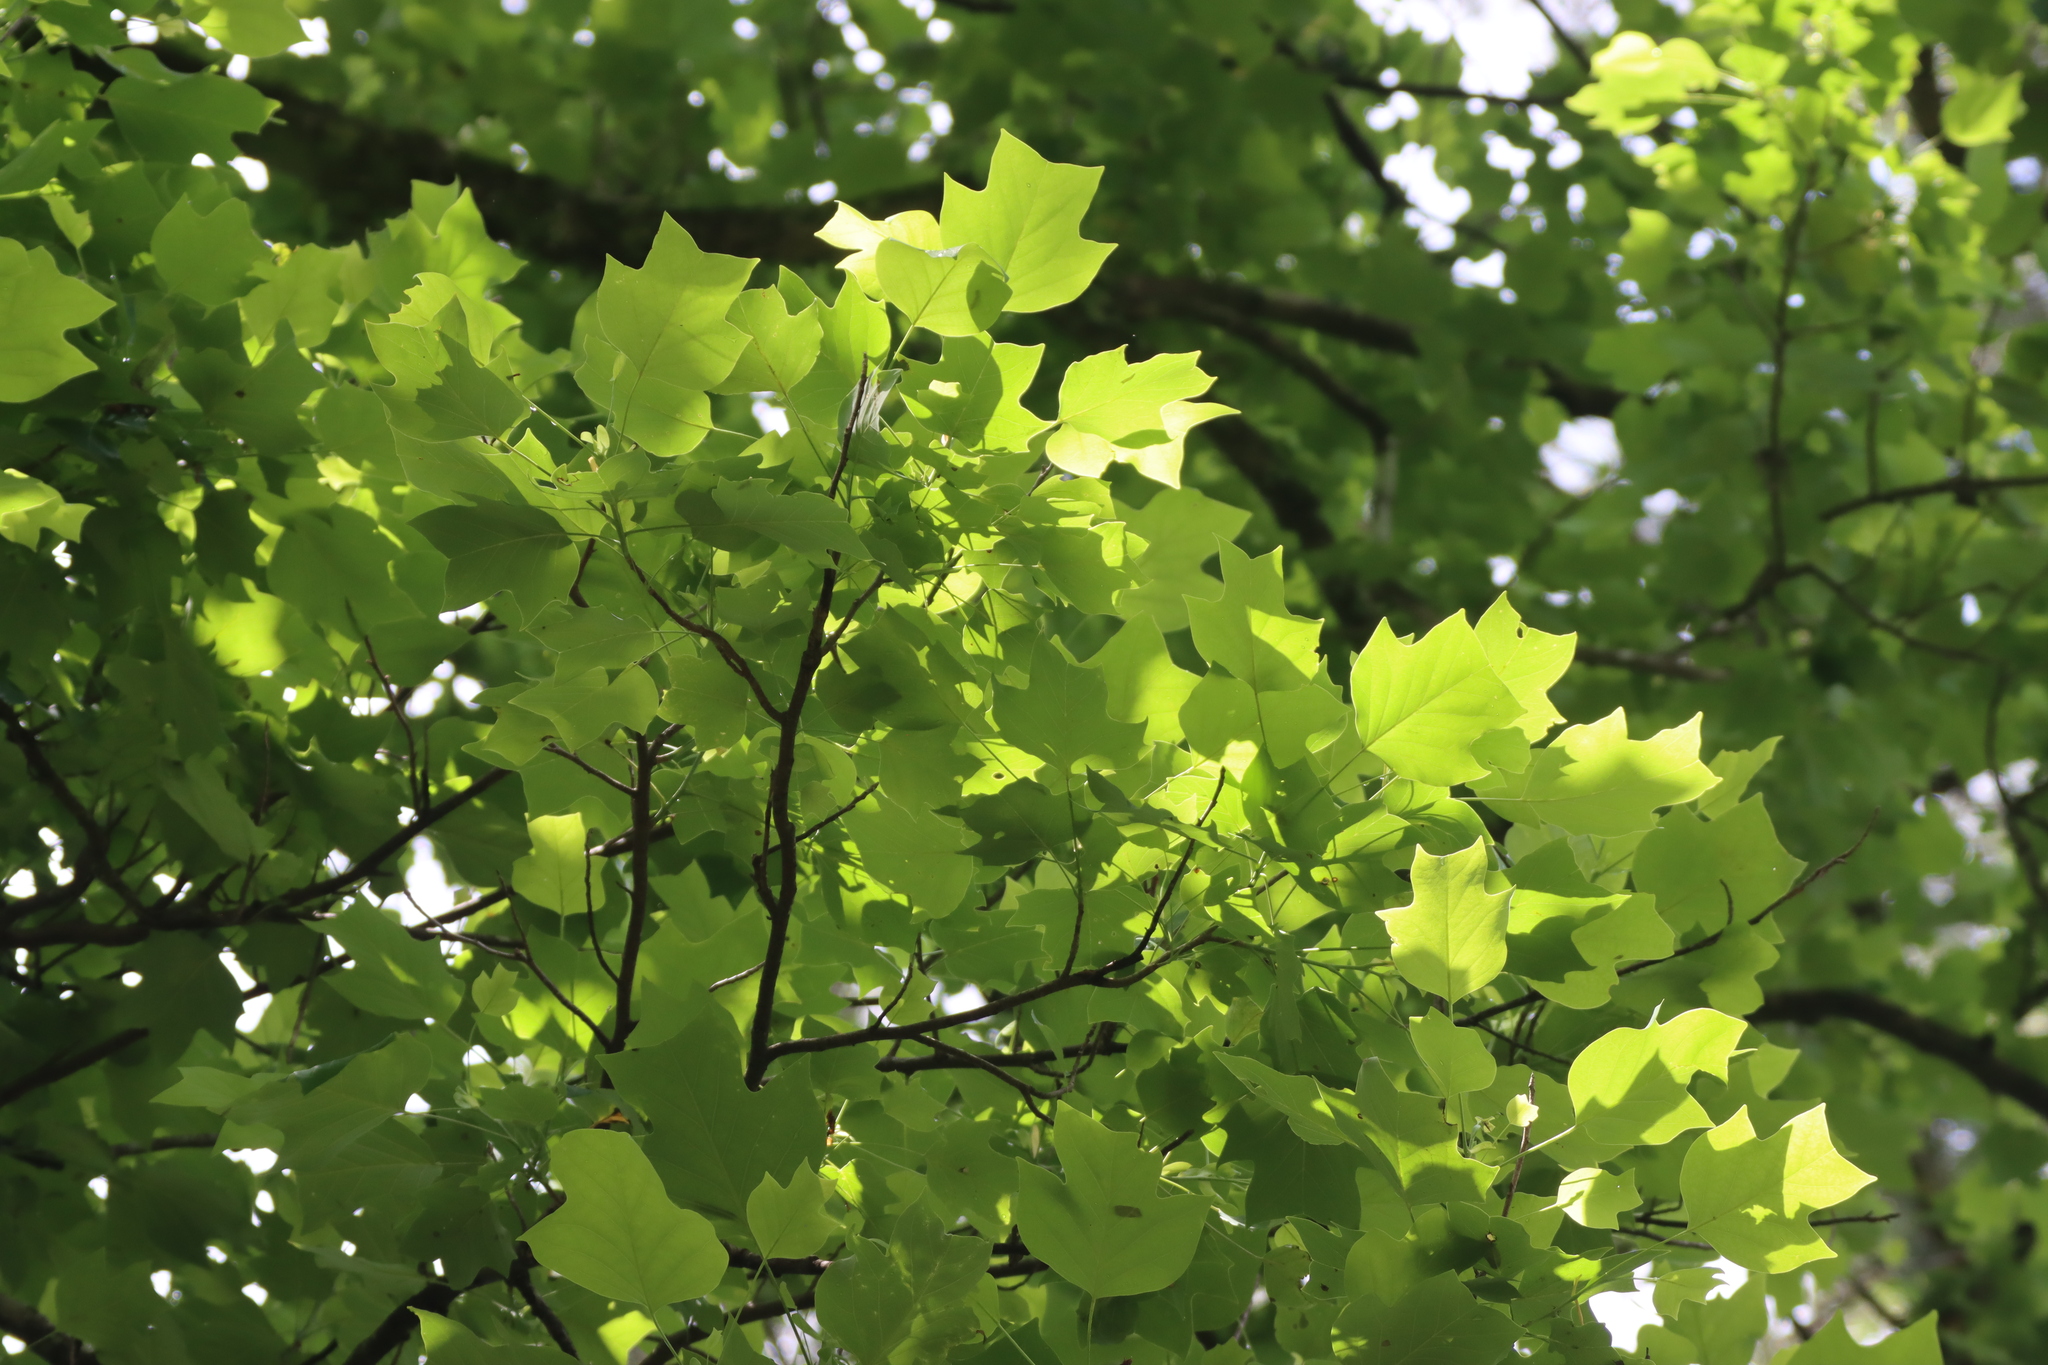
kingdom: Plantae
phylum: Tracheophyta
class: Magnoliopsida
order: Magnoliales
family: Magnoliaceae
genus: Liriodendron
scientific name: Liriodendron tulipifera
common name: Tulip tree
